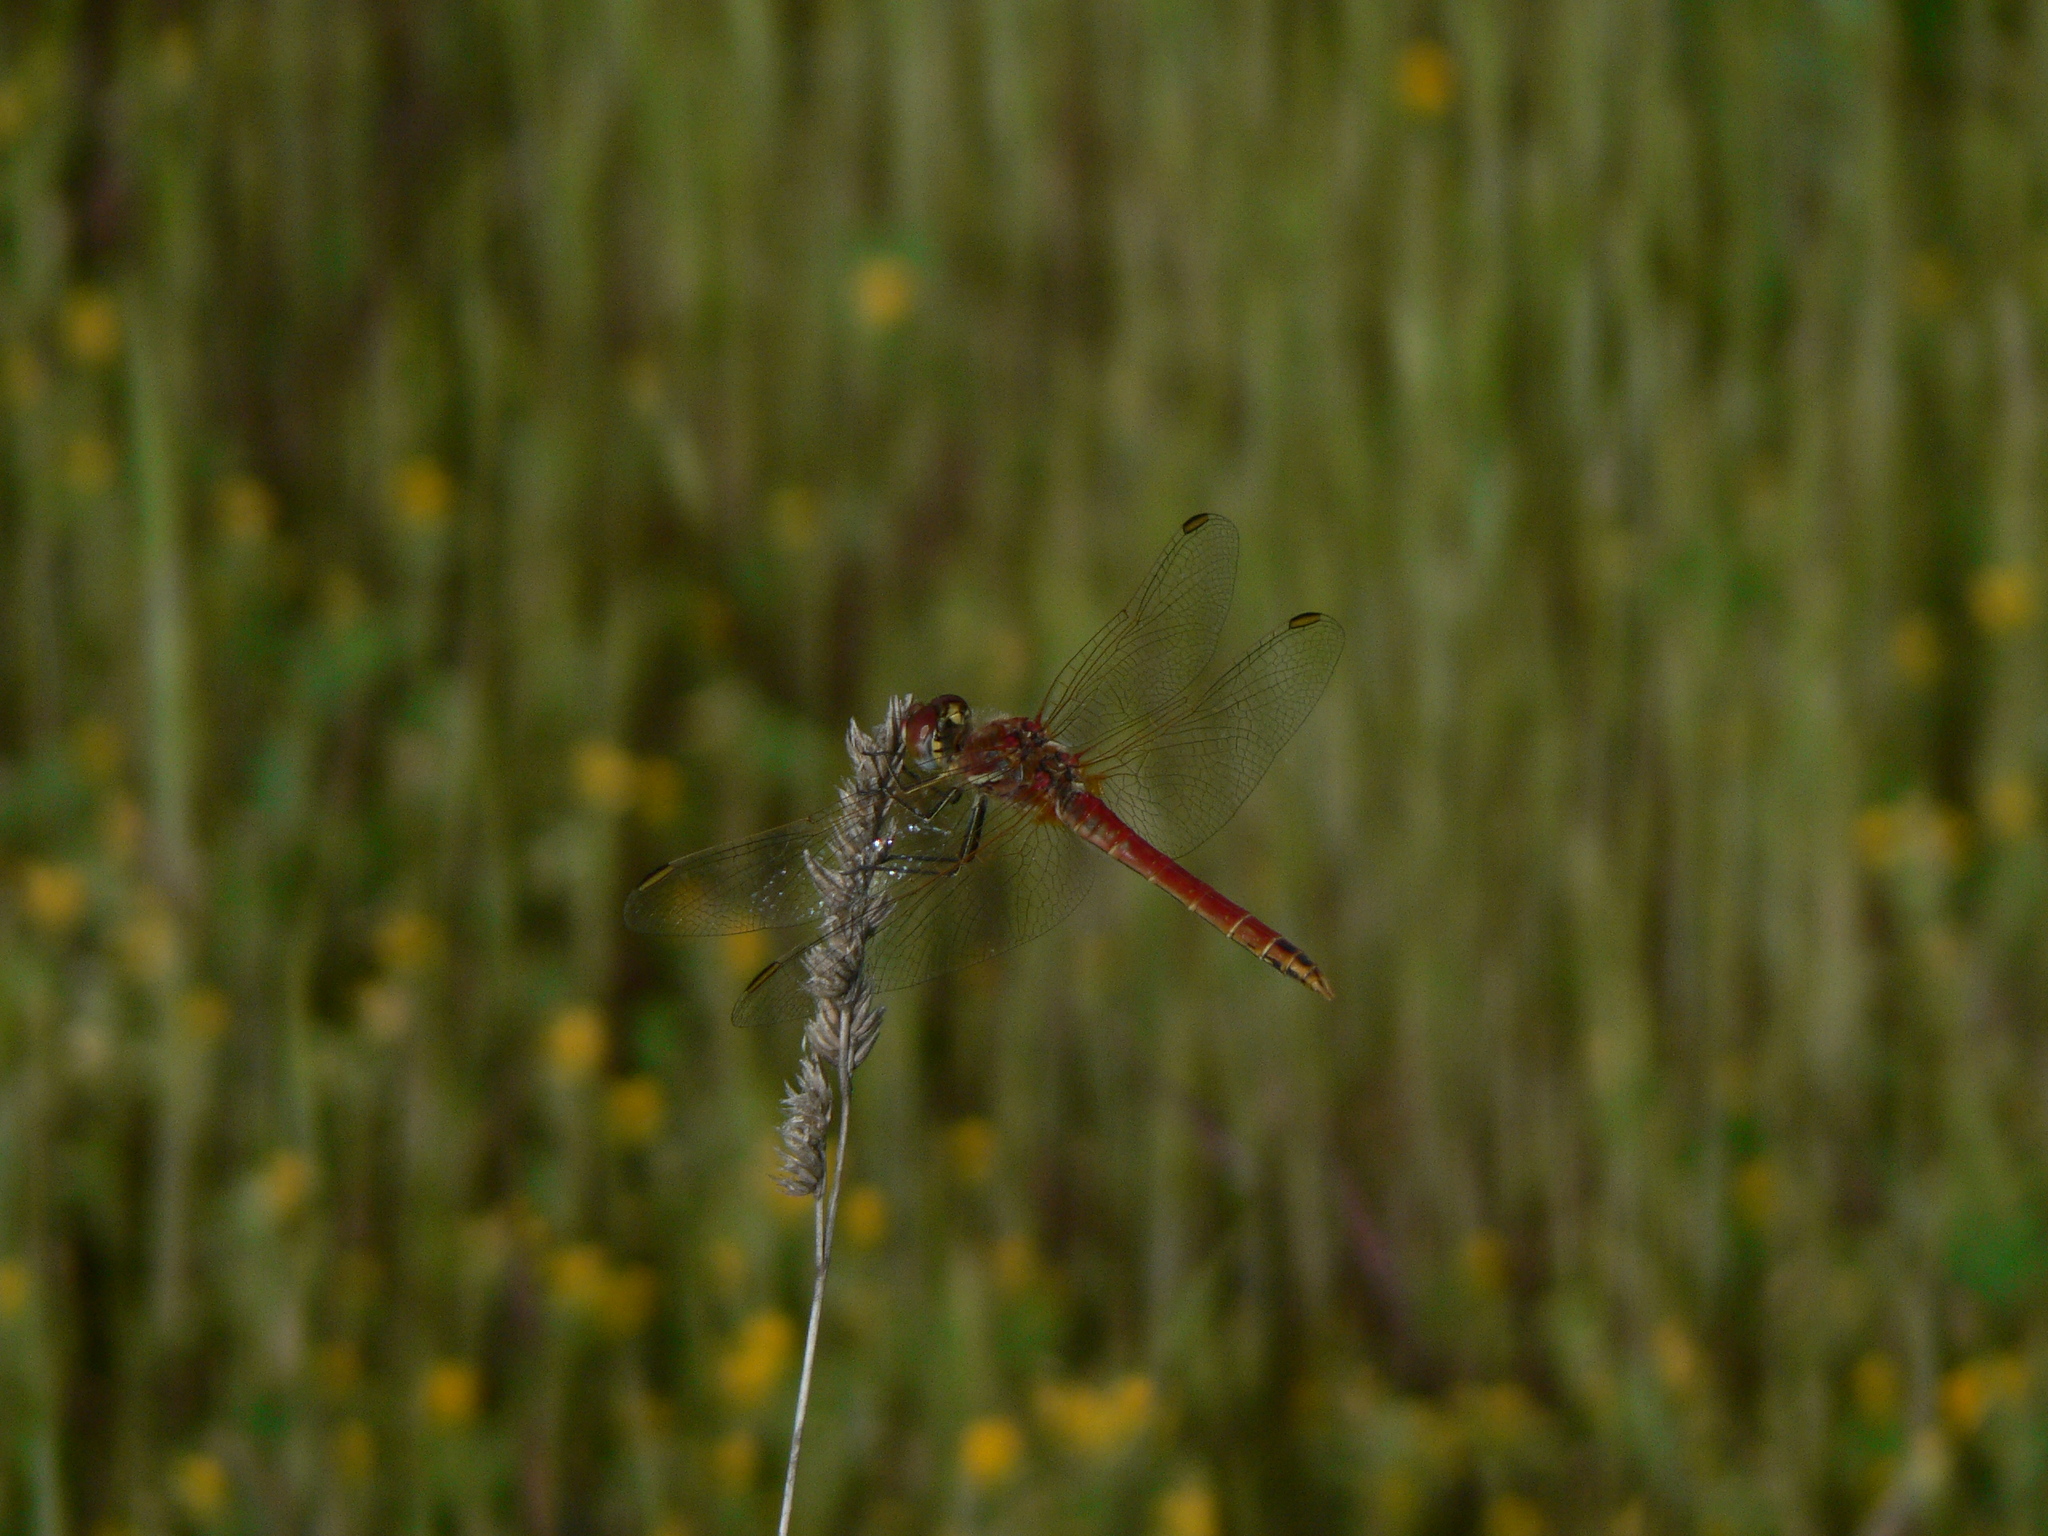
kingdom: Animalia
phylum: Arthropoda
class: Insecta
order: Odonata
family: Libellulidae
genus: Sympetrum
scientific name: Sympetrum fonscolombii
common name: Red-veined darter
